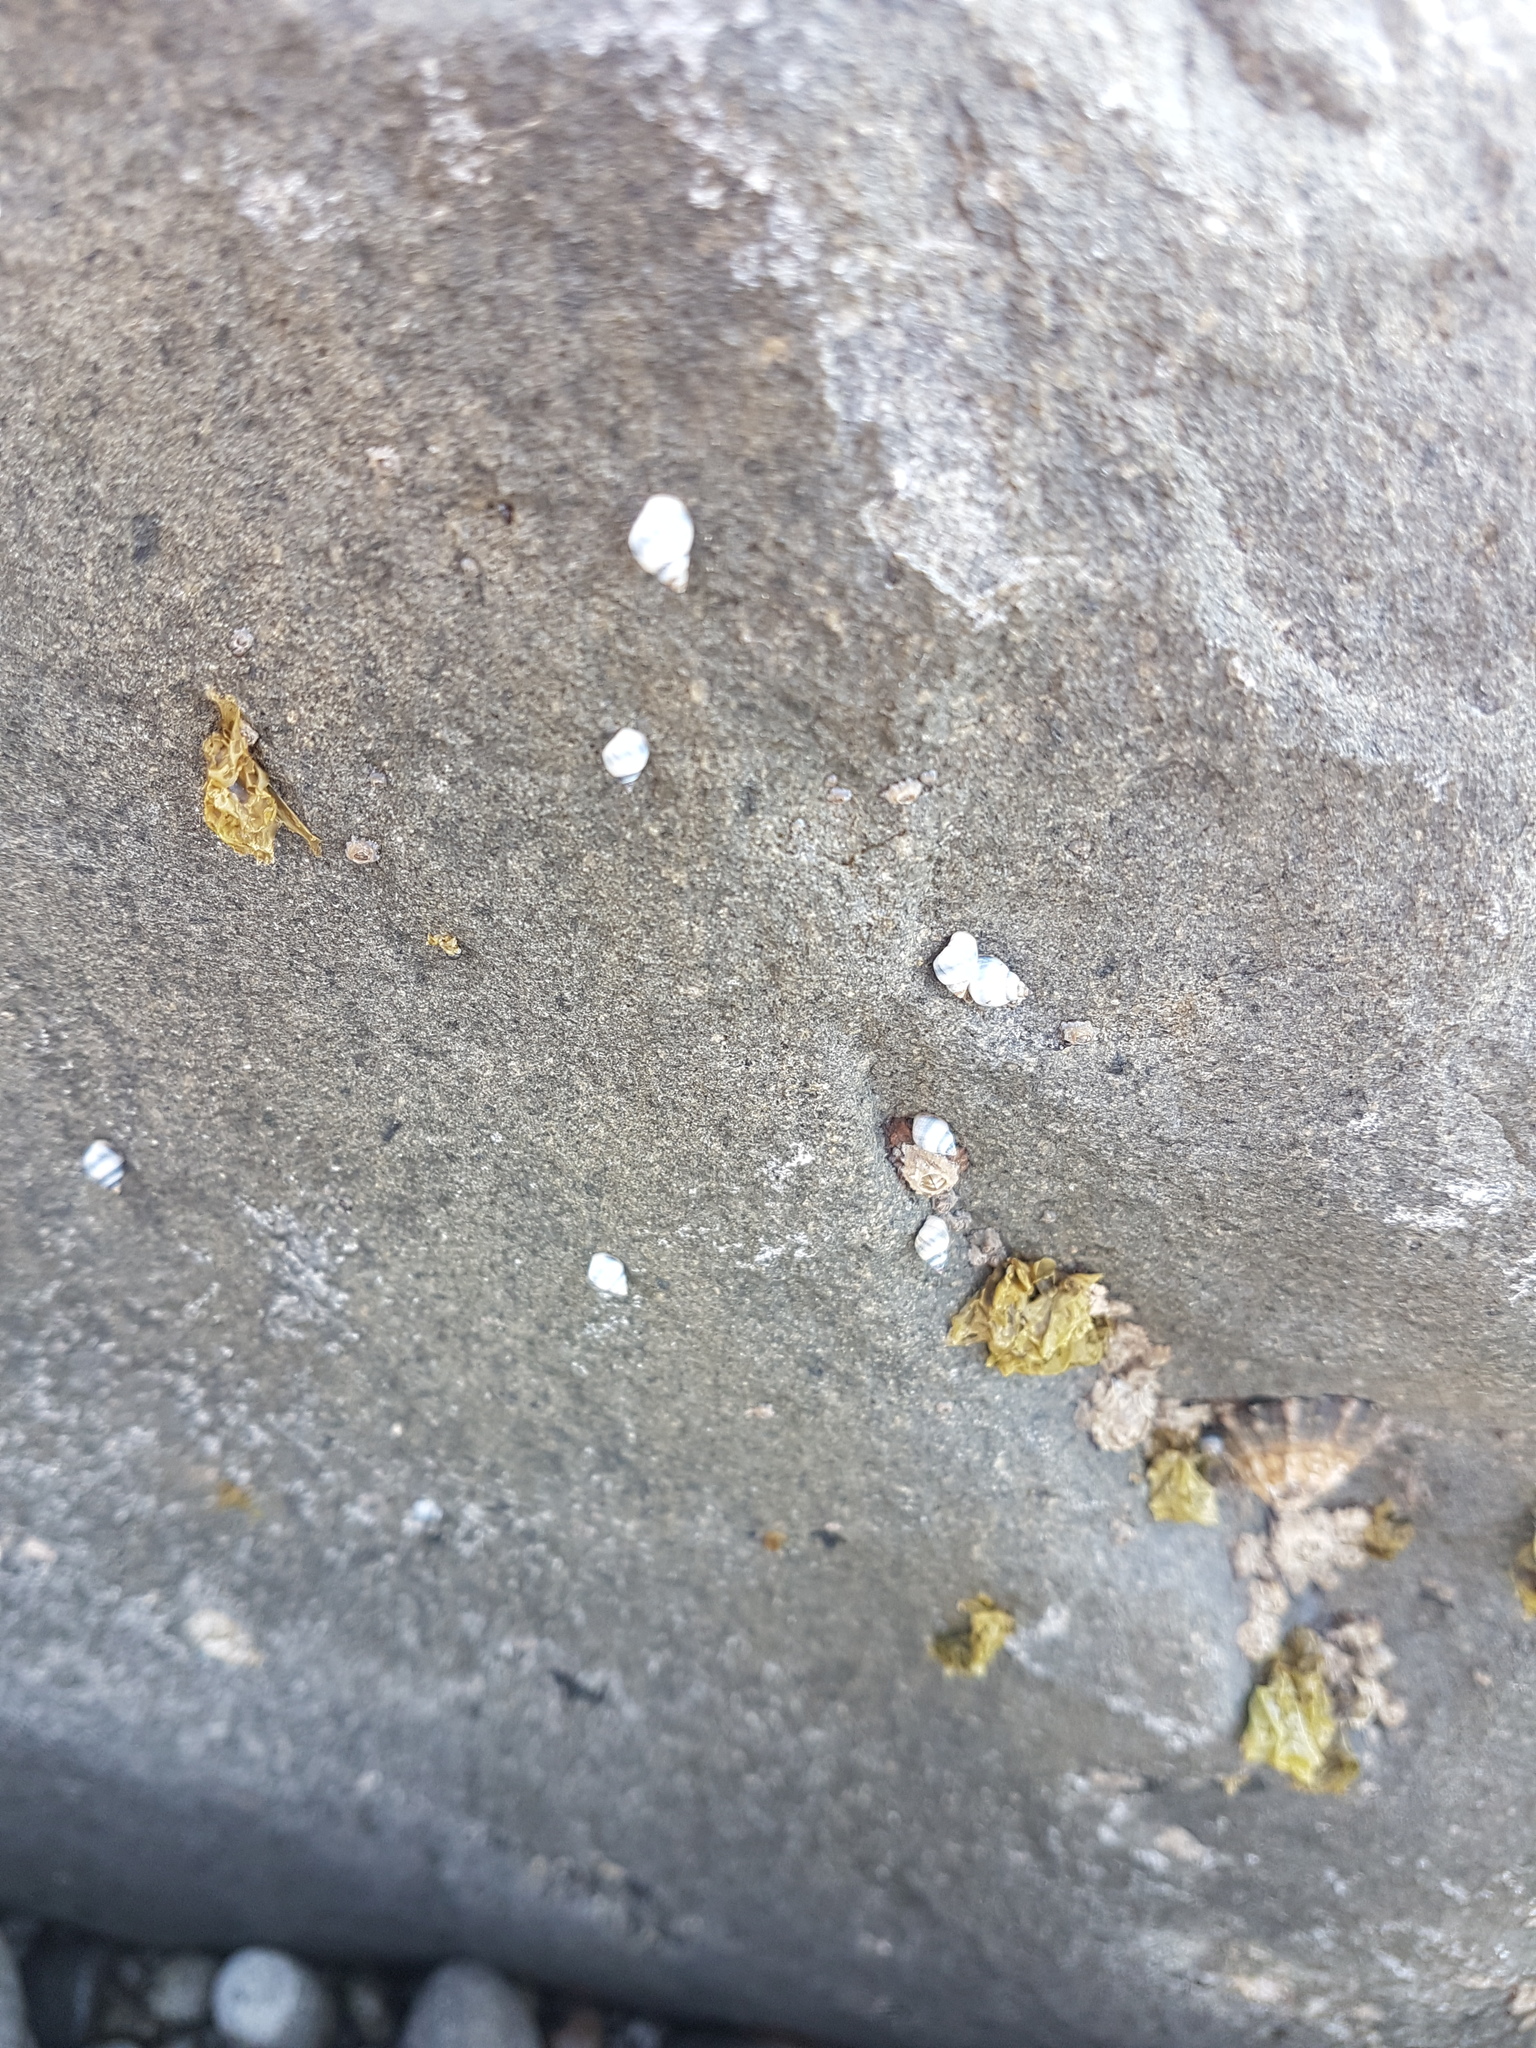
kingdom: Animalia
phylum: Mollusca
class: Gastropoda
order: Littorinimorpha
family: Littorinidae
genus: Austrolittorina
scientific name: Austrolittorina antipodum
